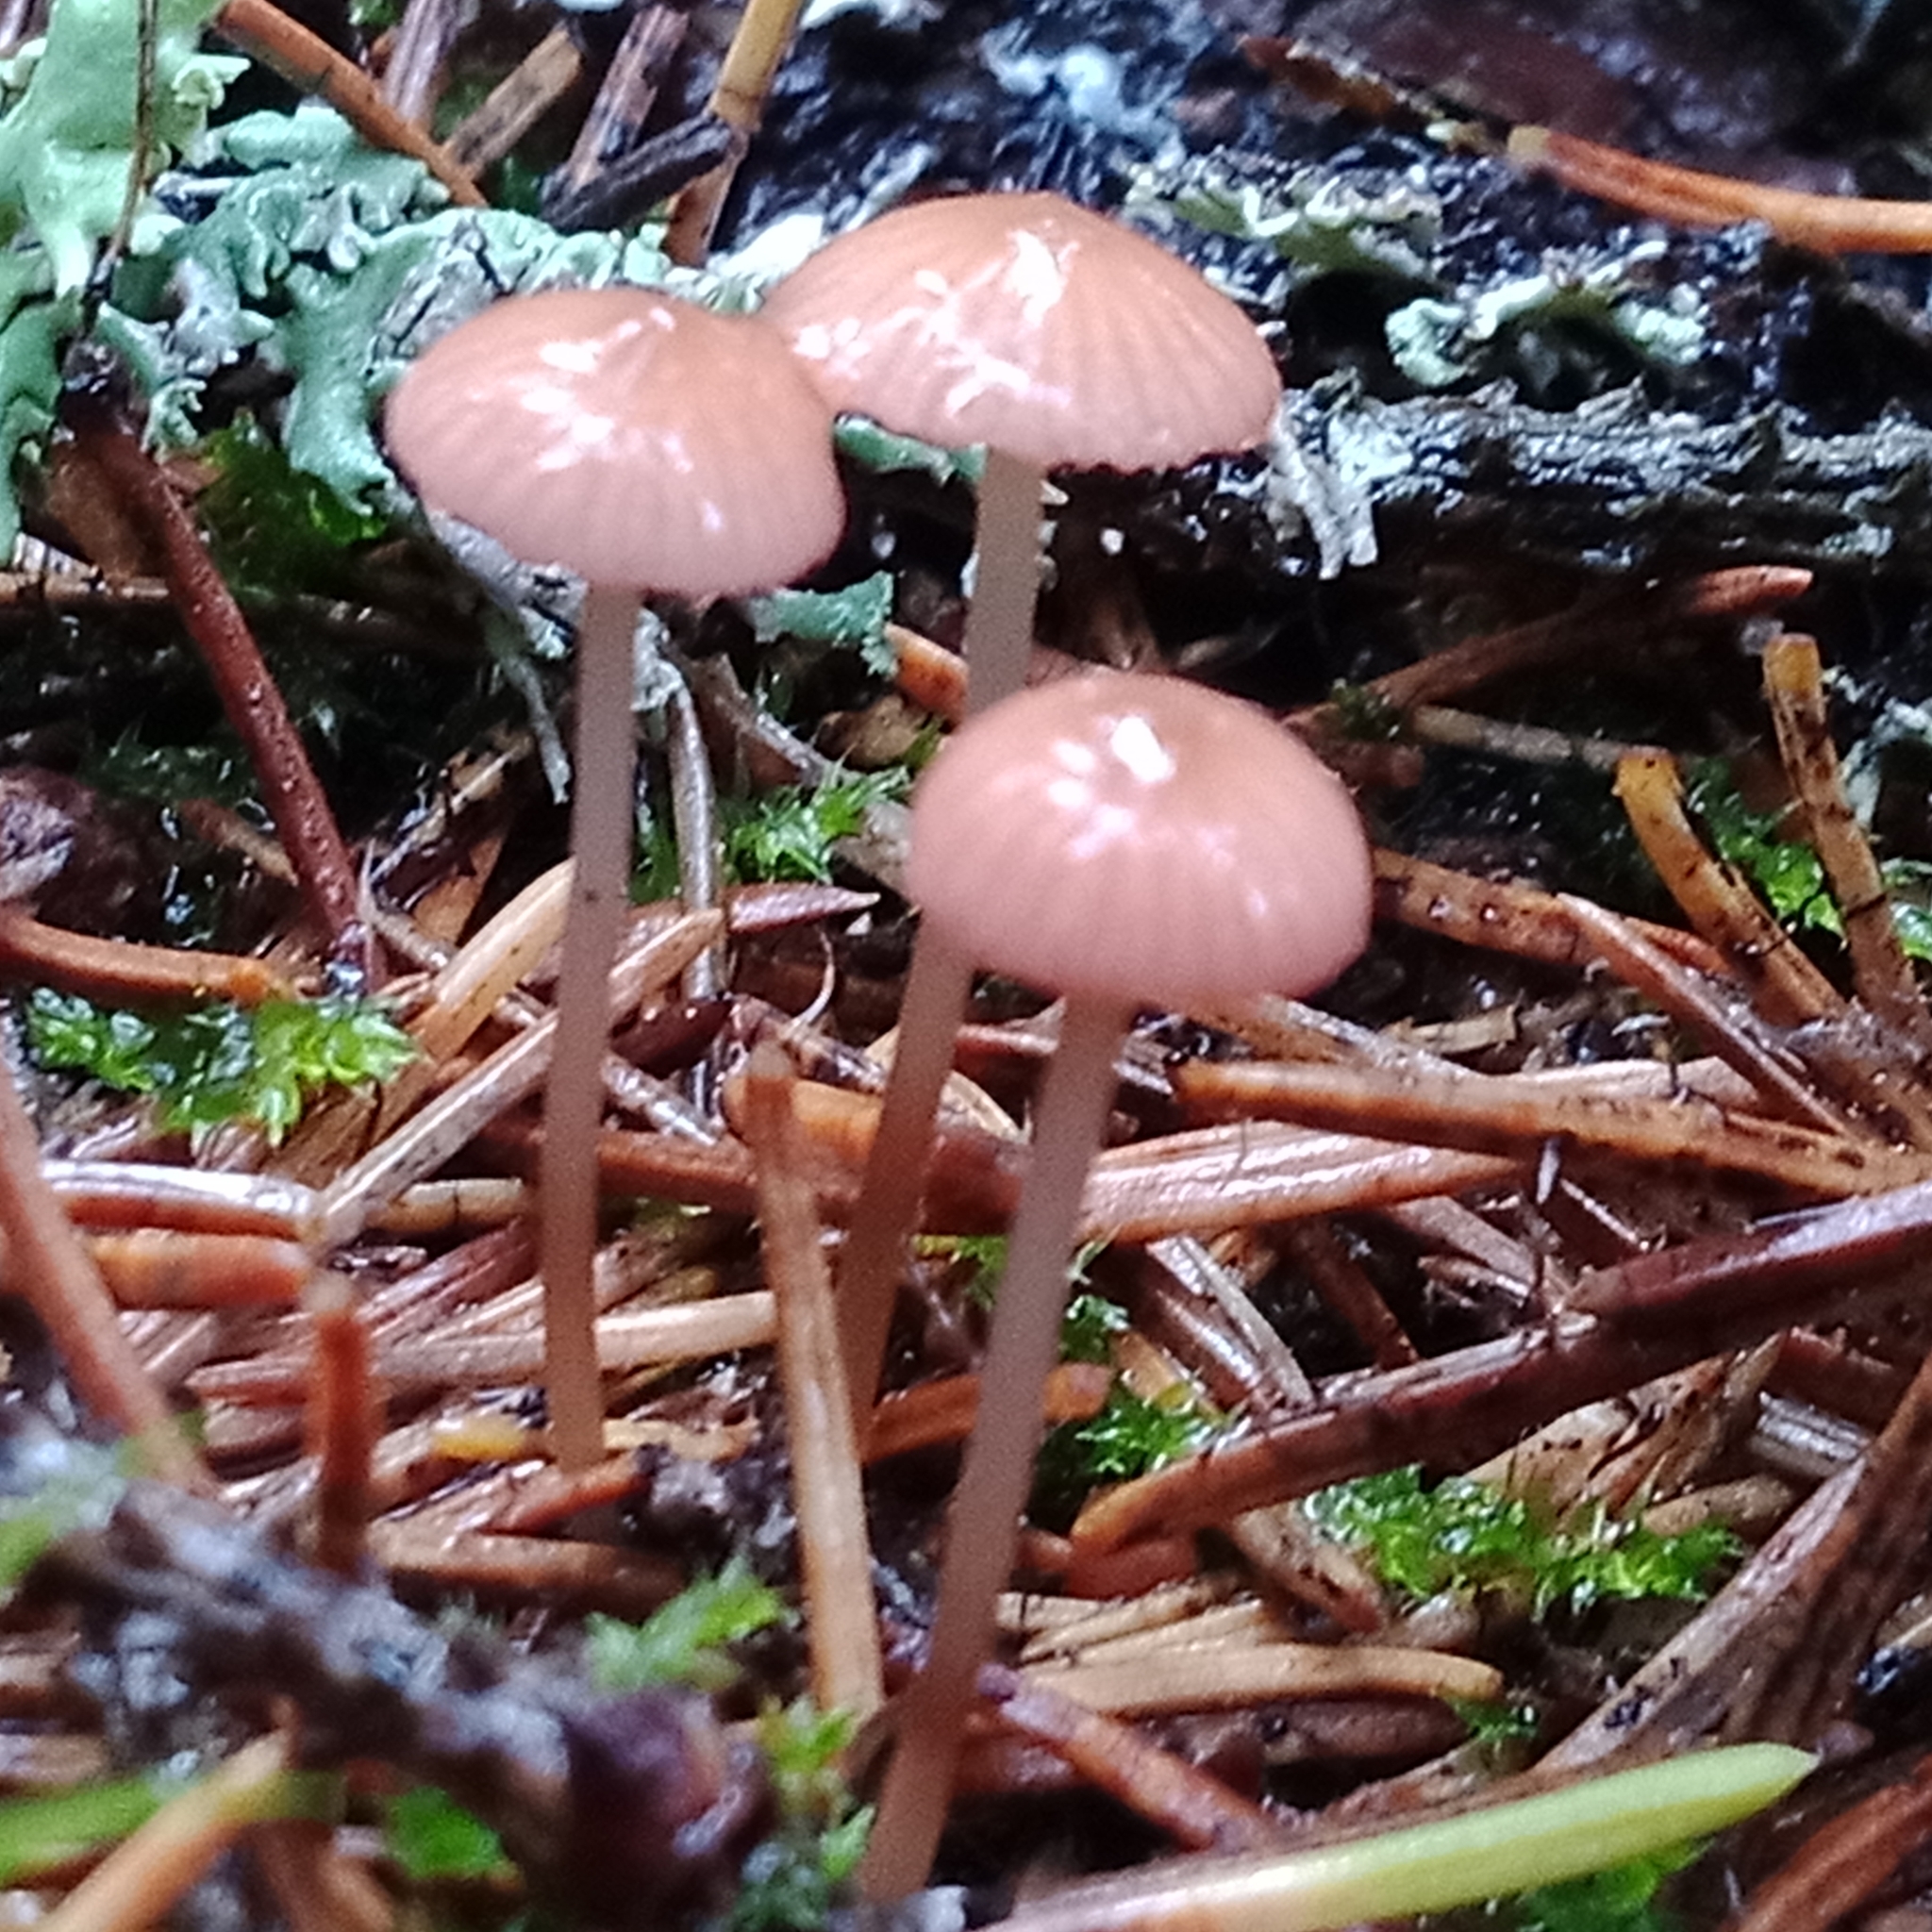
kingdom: Fungi
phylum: Basidiomycota
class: Agaricomycetes
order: Agaricales
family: Mycenaceae
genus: Mycena
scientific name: Mycena rosella
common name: Pink bonnet
